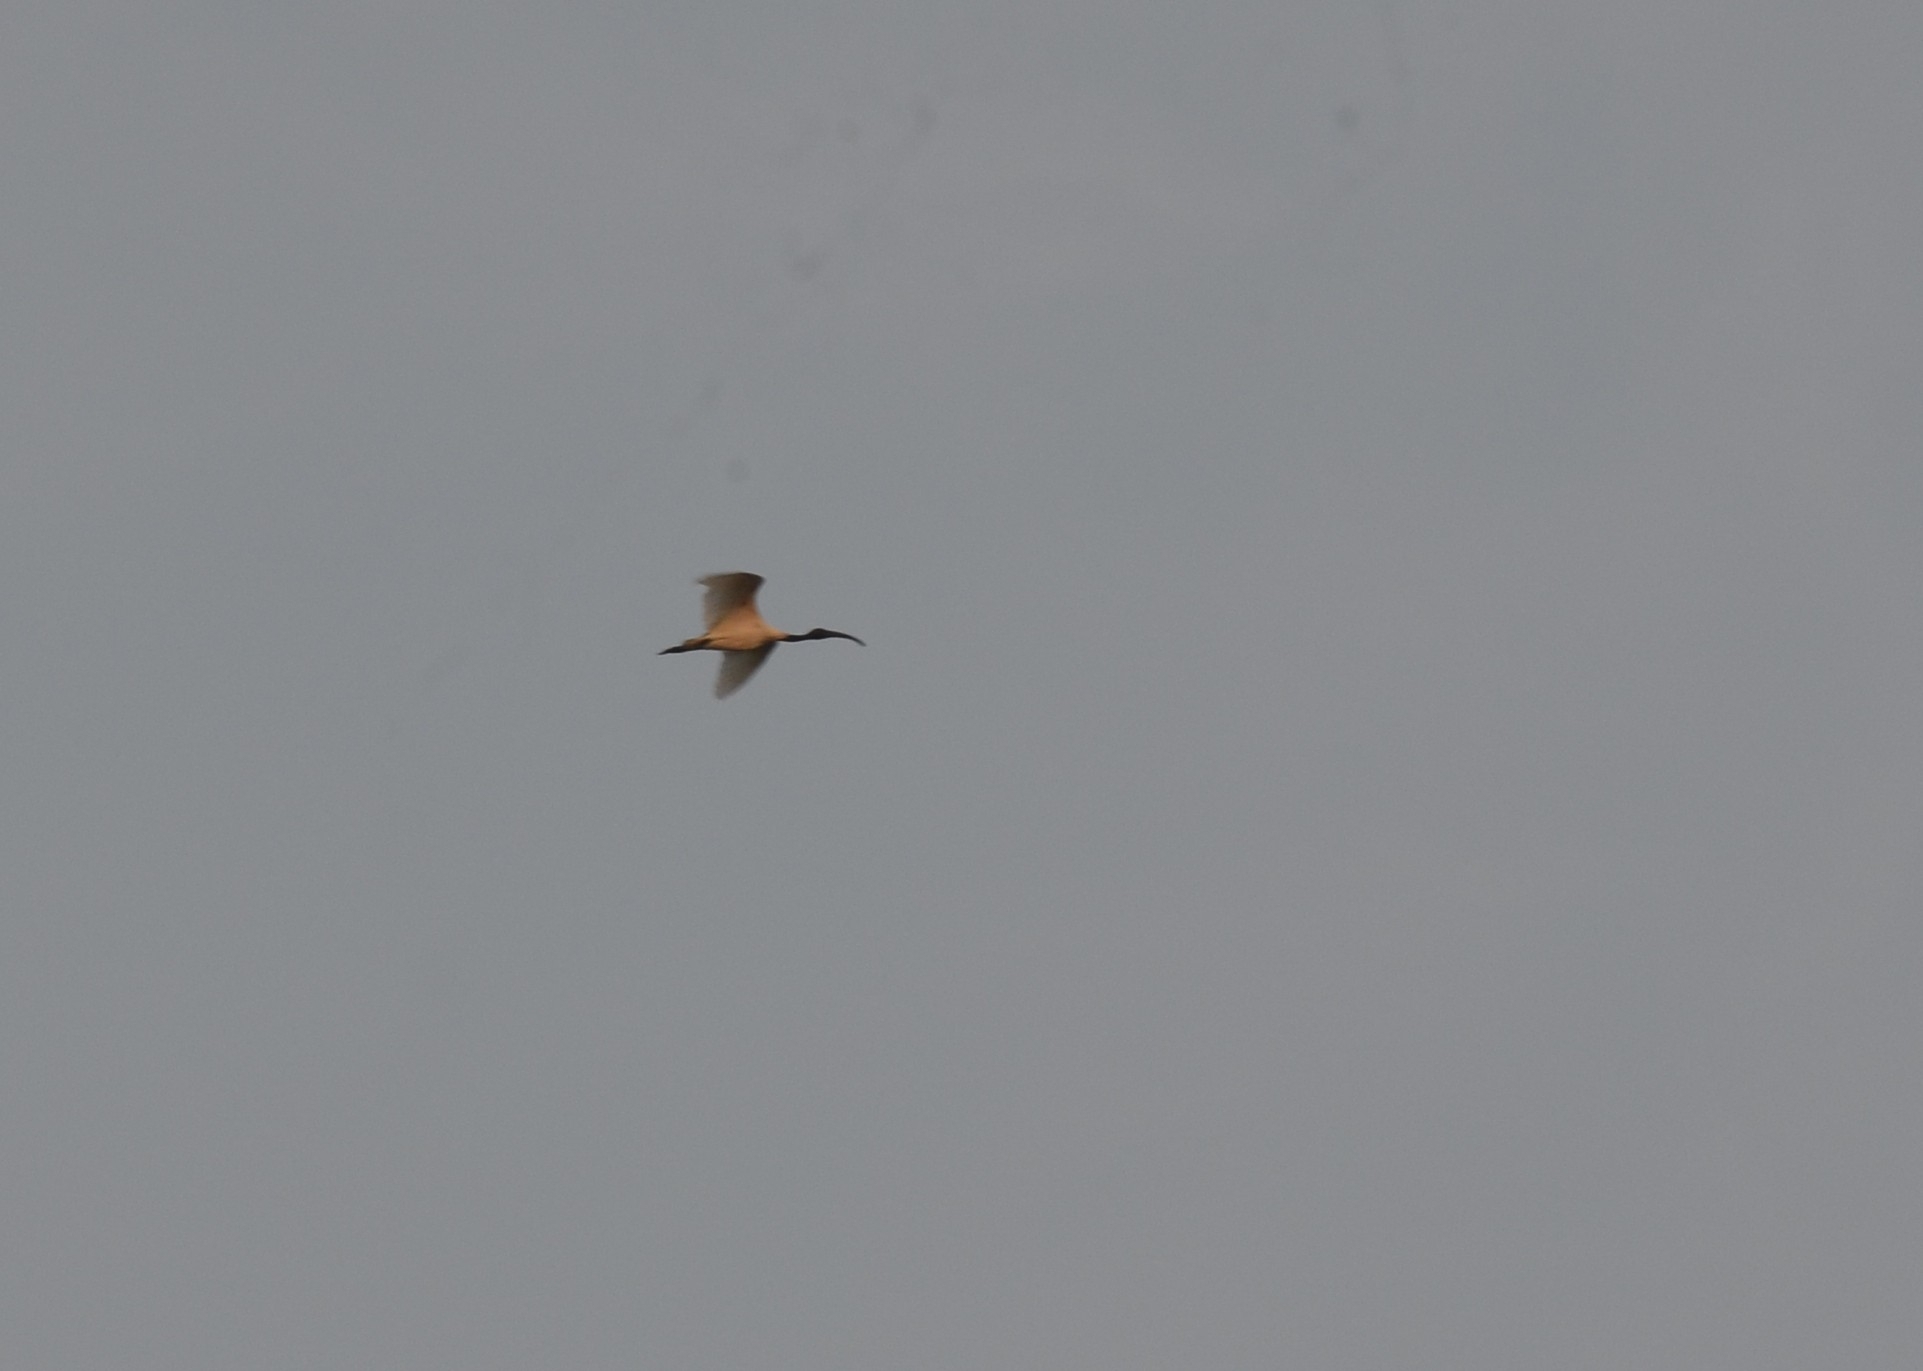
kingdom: Animalia
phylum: Chordata
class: Aves
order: Pelecaniformes
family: Threskiornithidae
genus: Threskiornis
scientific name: Threskiornis melanocephalus
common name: Black-headed ibis
